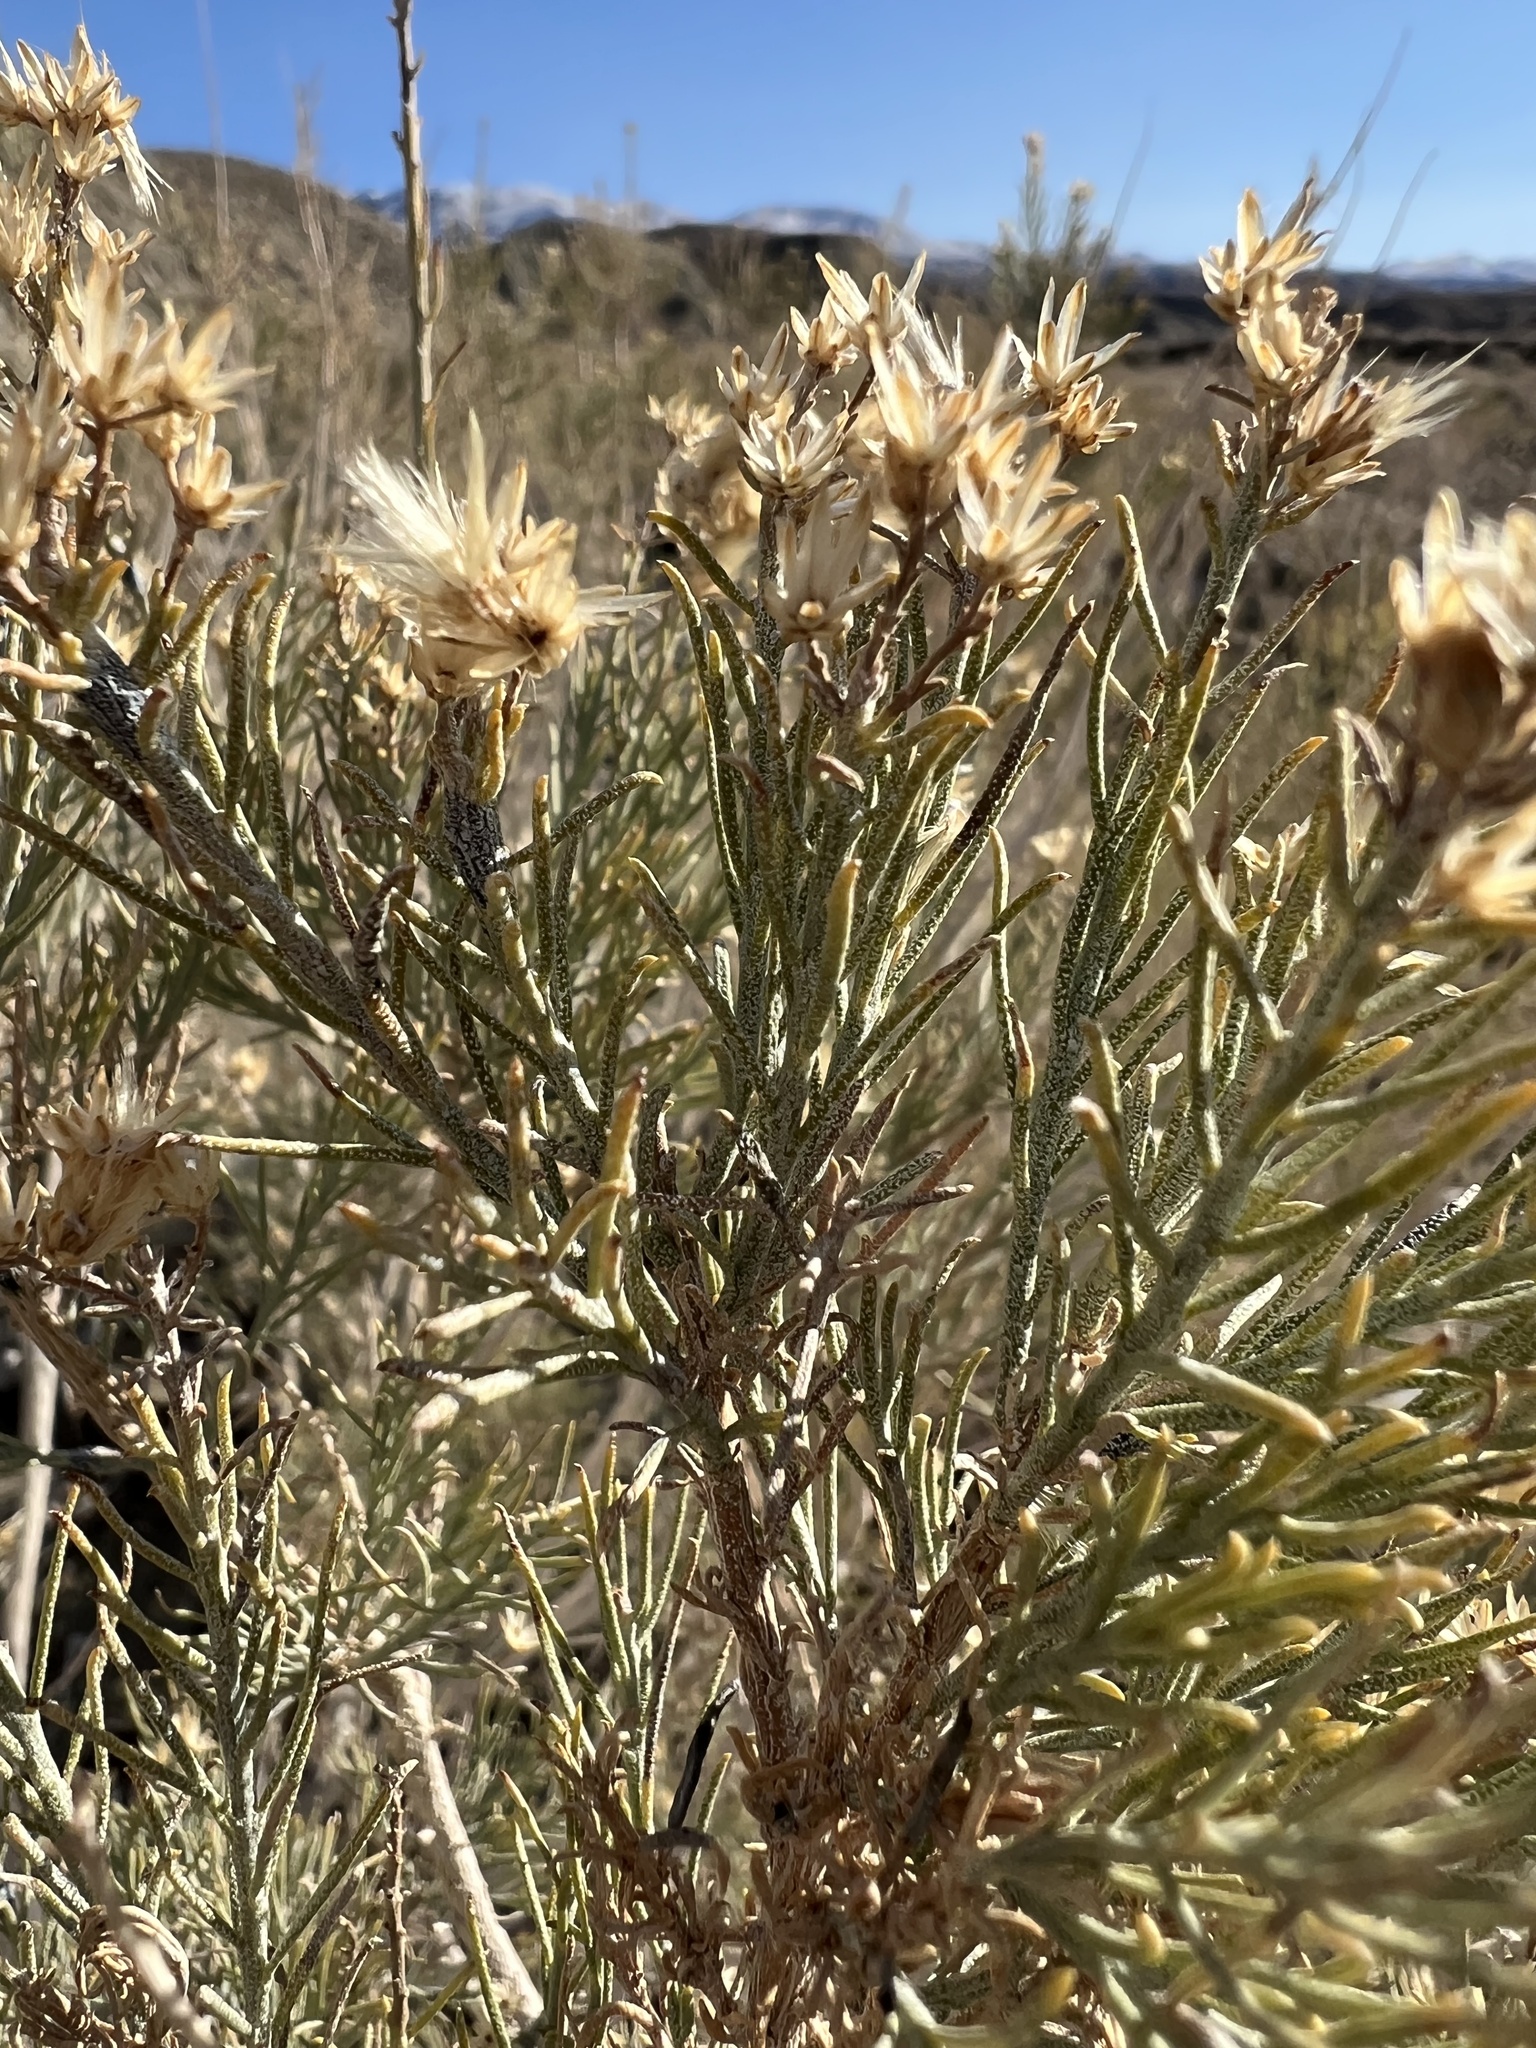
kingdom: Plantae
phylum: Tracheophyta
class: Magnoliopsida
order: Asterales
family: Asteraceae
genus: Ericameria
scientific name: Ericameria paniculata
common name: Punctate rabbitbrush
